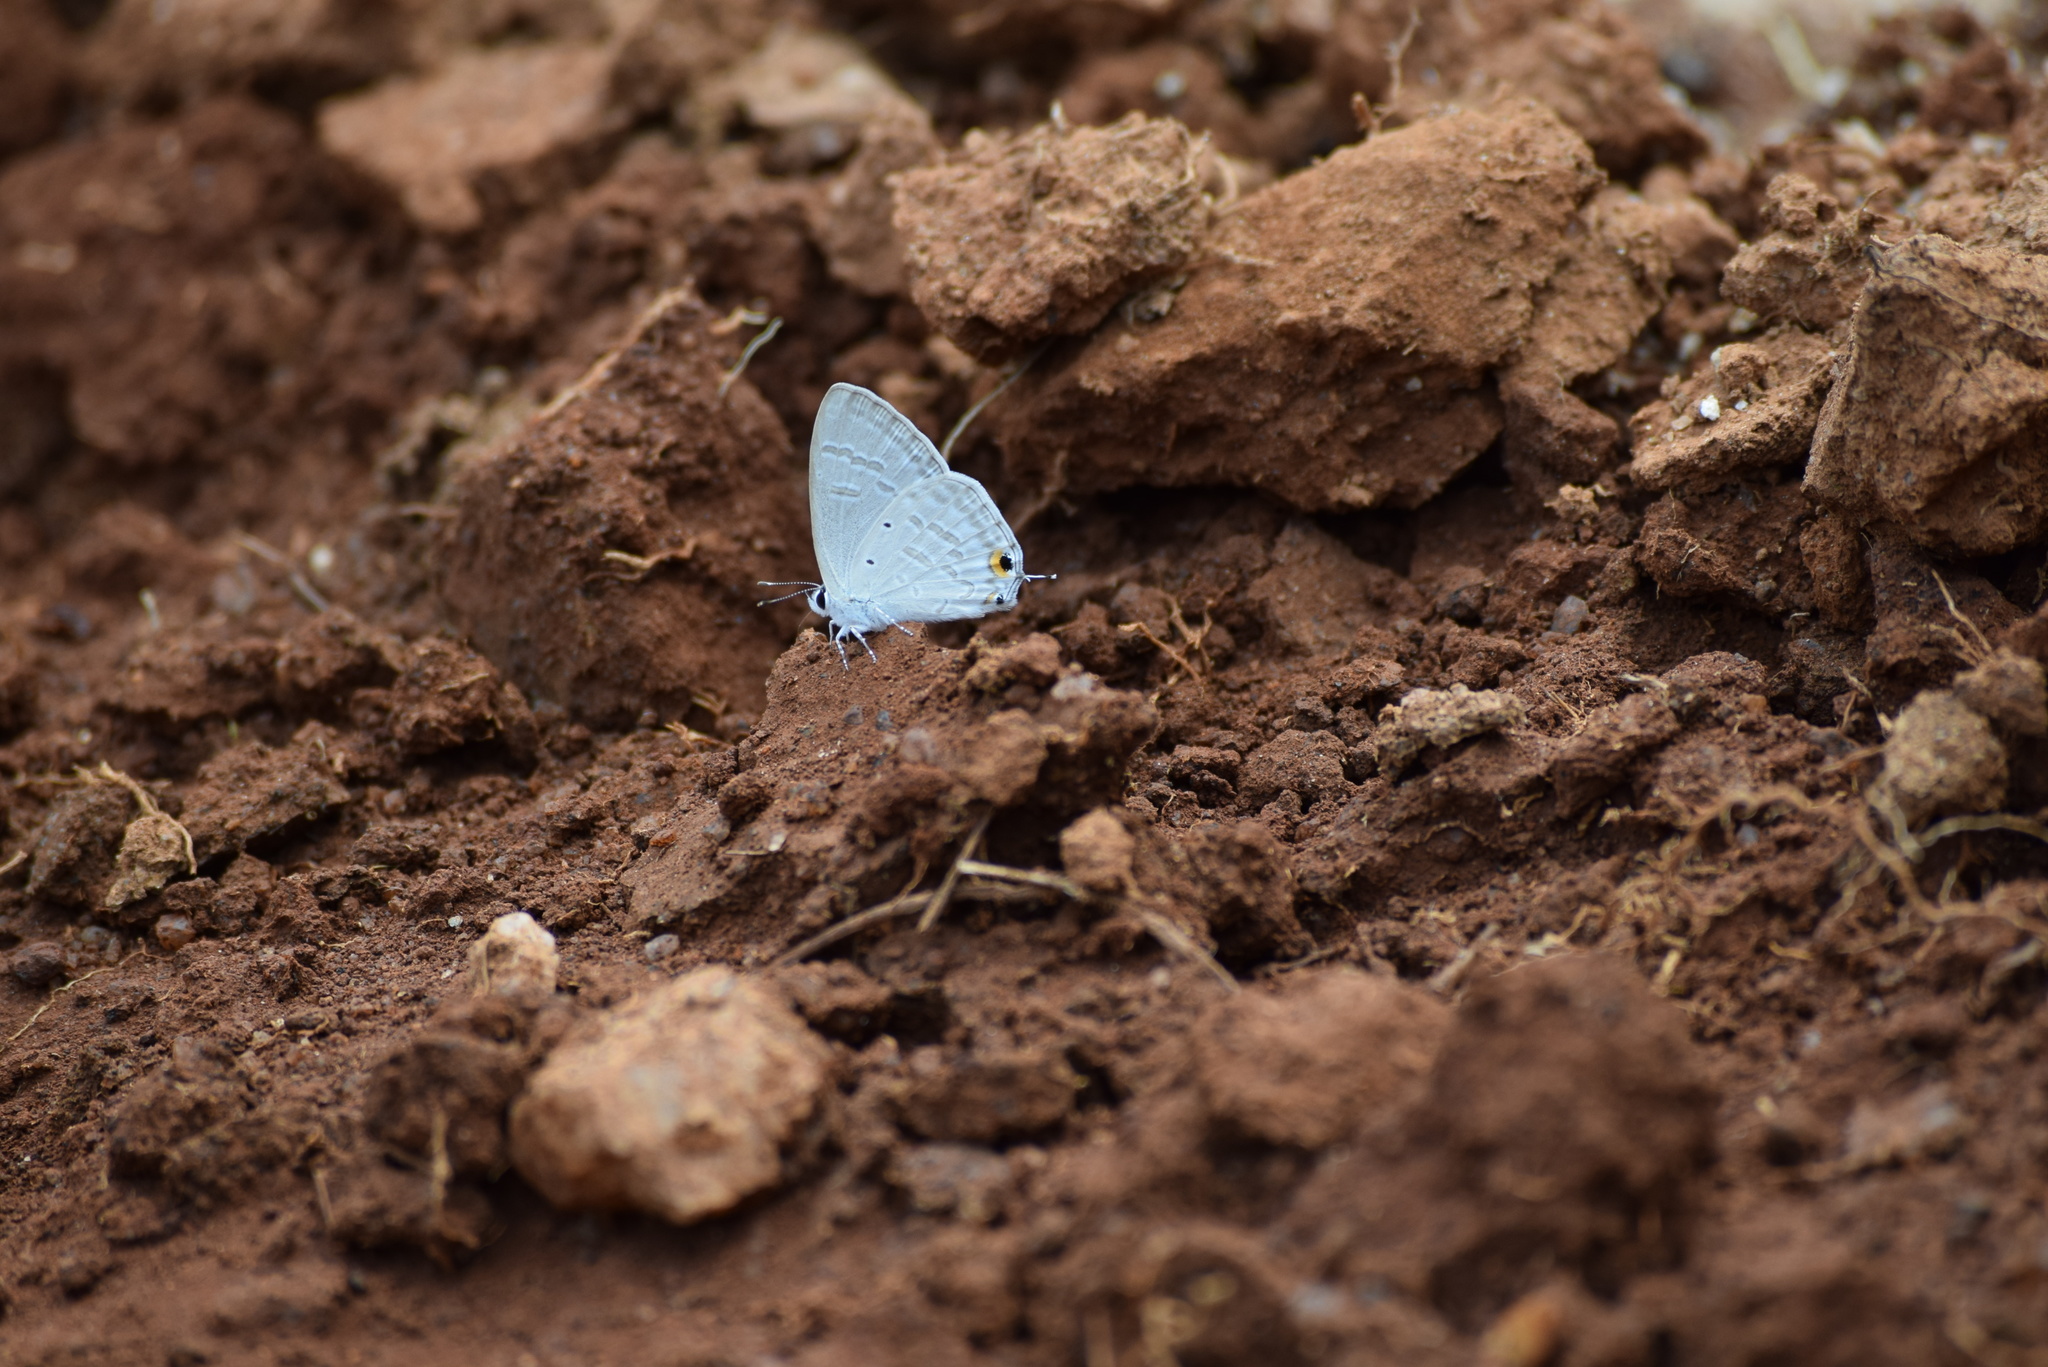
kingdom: Animalia
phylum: Arthropoda
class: Insecta
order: Lepidoptera
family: Lycaenidae
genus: Catochrysops
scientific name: Catochrysops strabo
